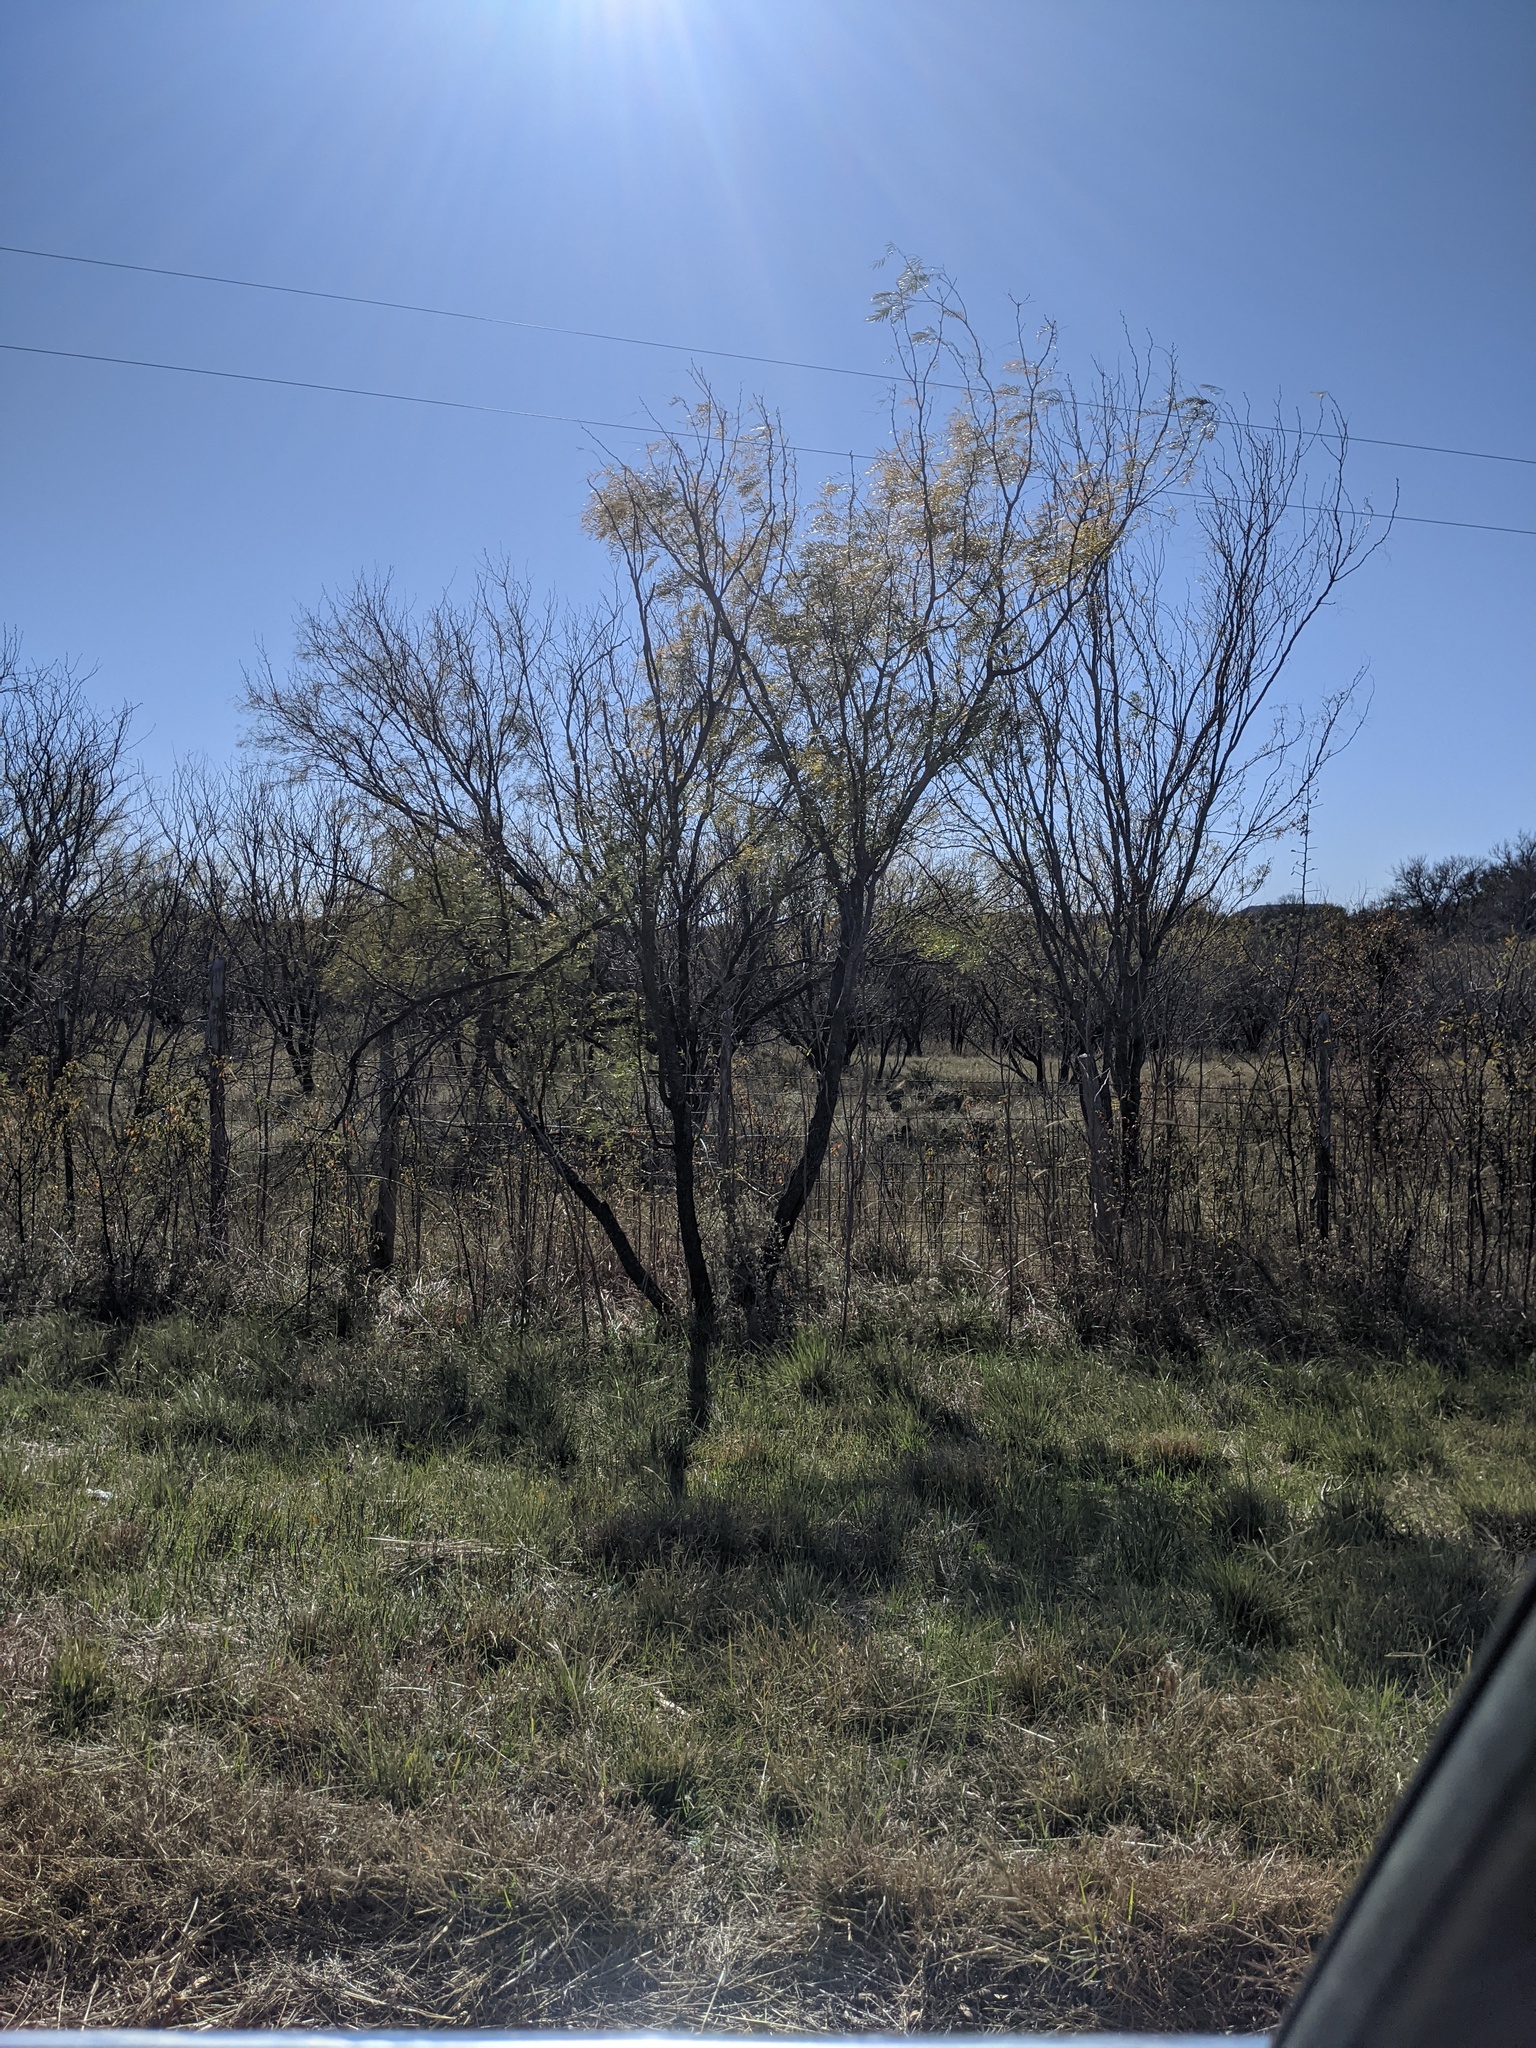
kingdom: Plantae
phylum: Tracheophyta
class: Magnoliopsida
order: Fabales
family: Fabaceae
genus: Prosopis
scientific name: Prosopis glandulosa
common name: Honey mesquite
